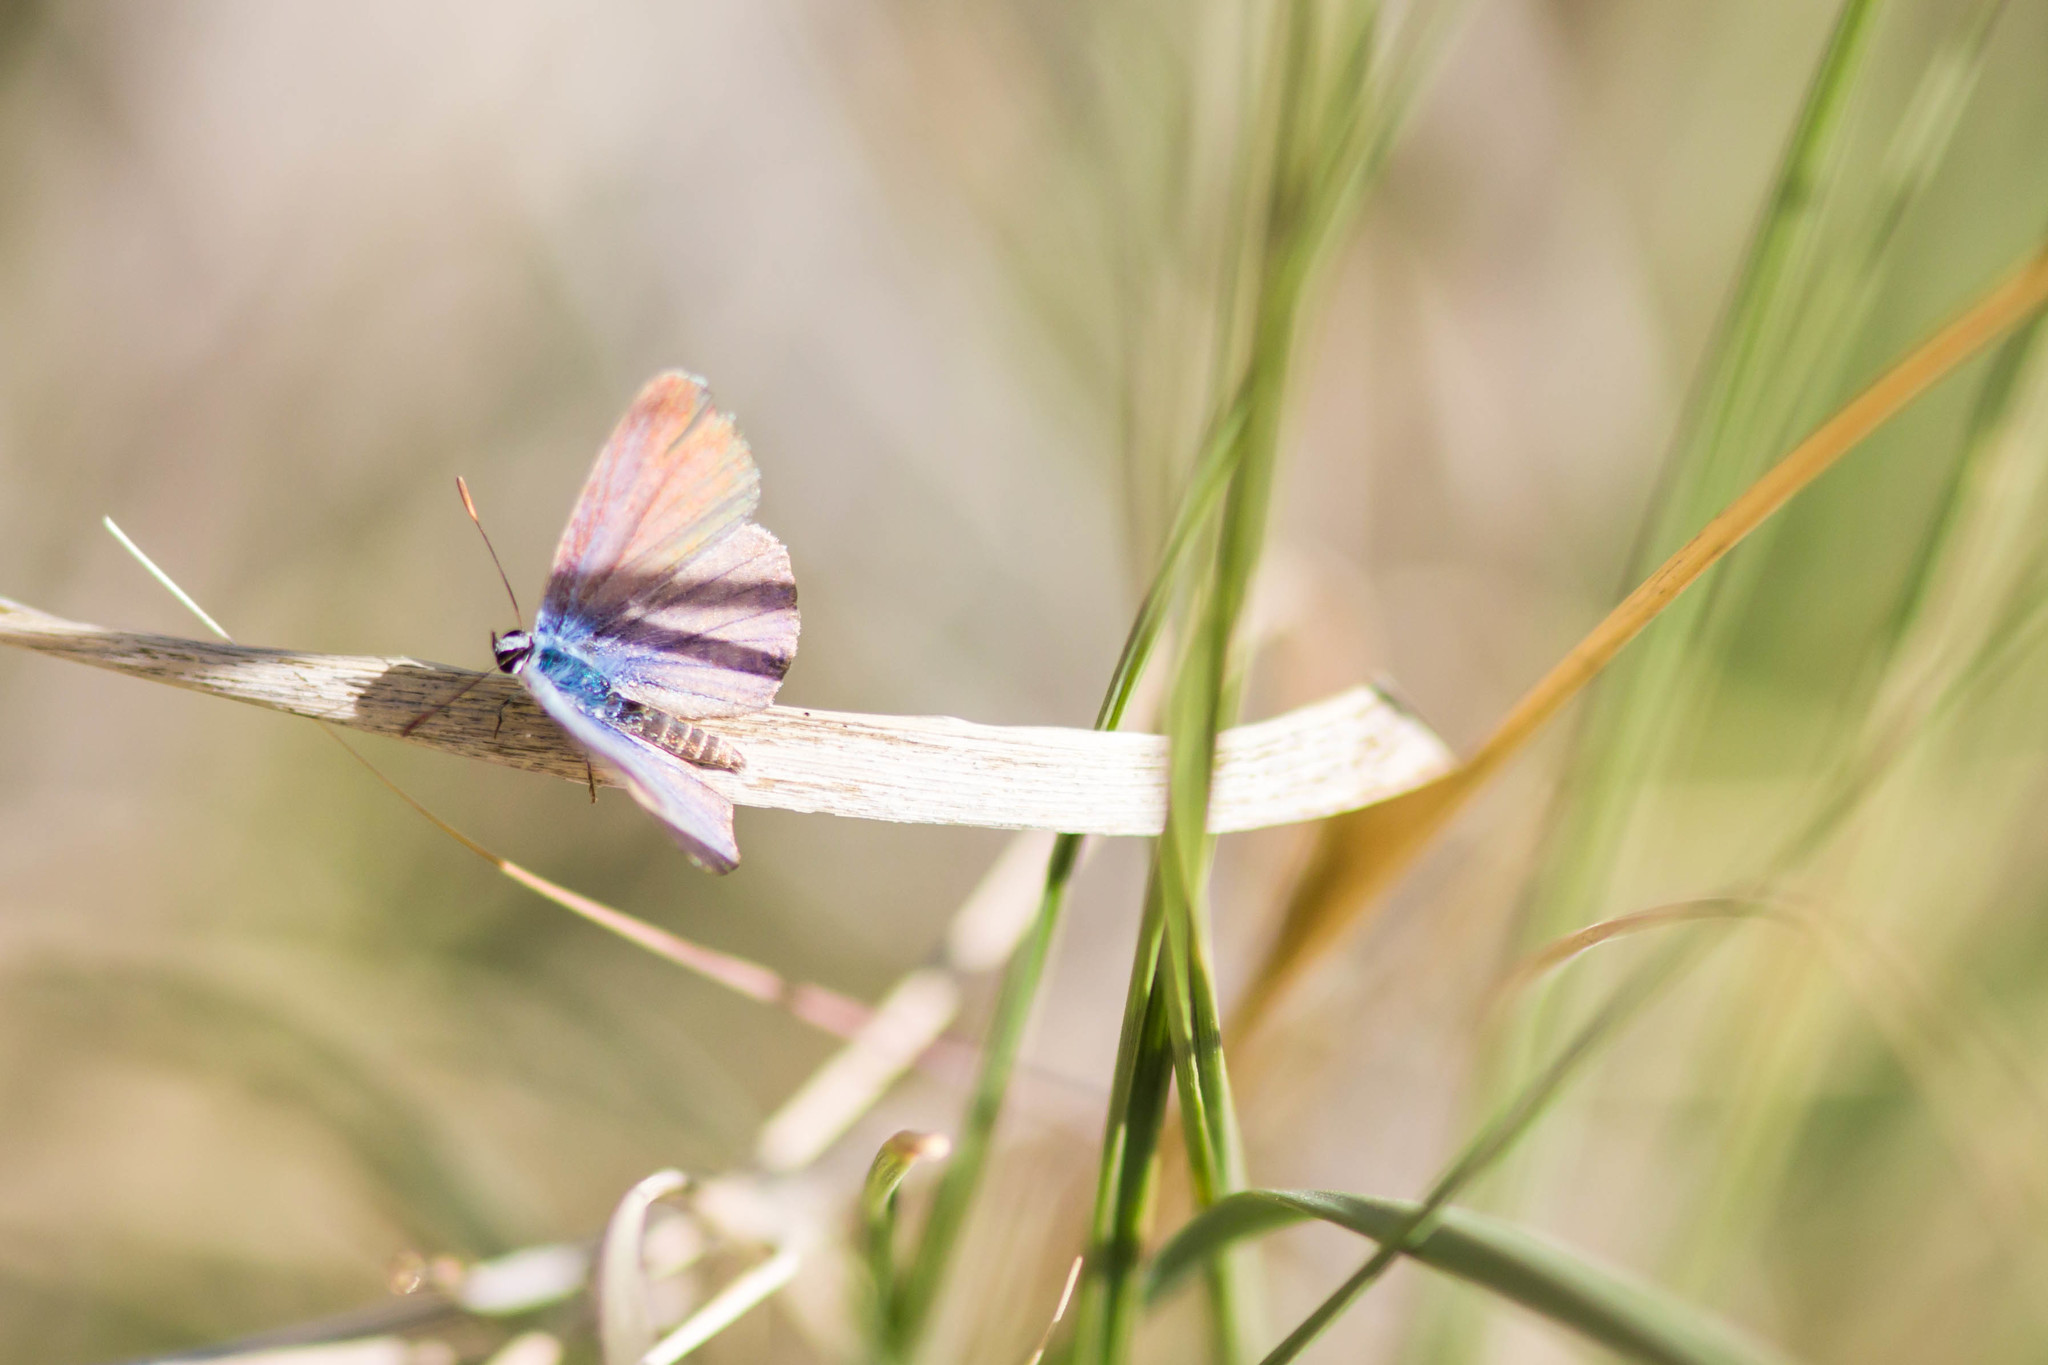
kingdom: Animalia
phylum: Arthropoda
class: Insecta
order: Lepidoptera
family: Lycaenidae
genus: Hemiargus
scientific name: Hemiargus ceraunus
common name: Ceraunus blue
